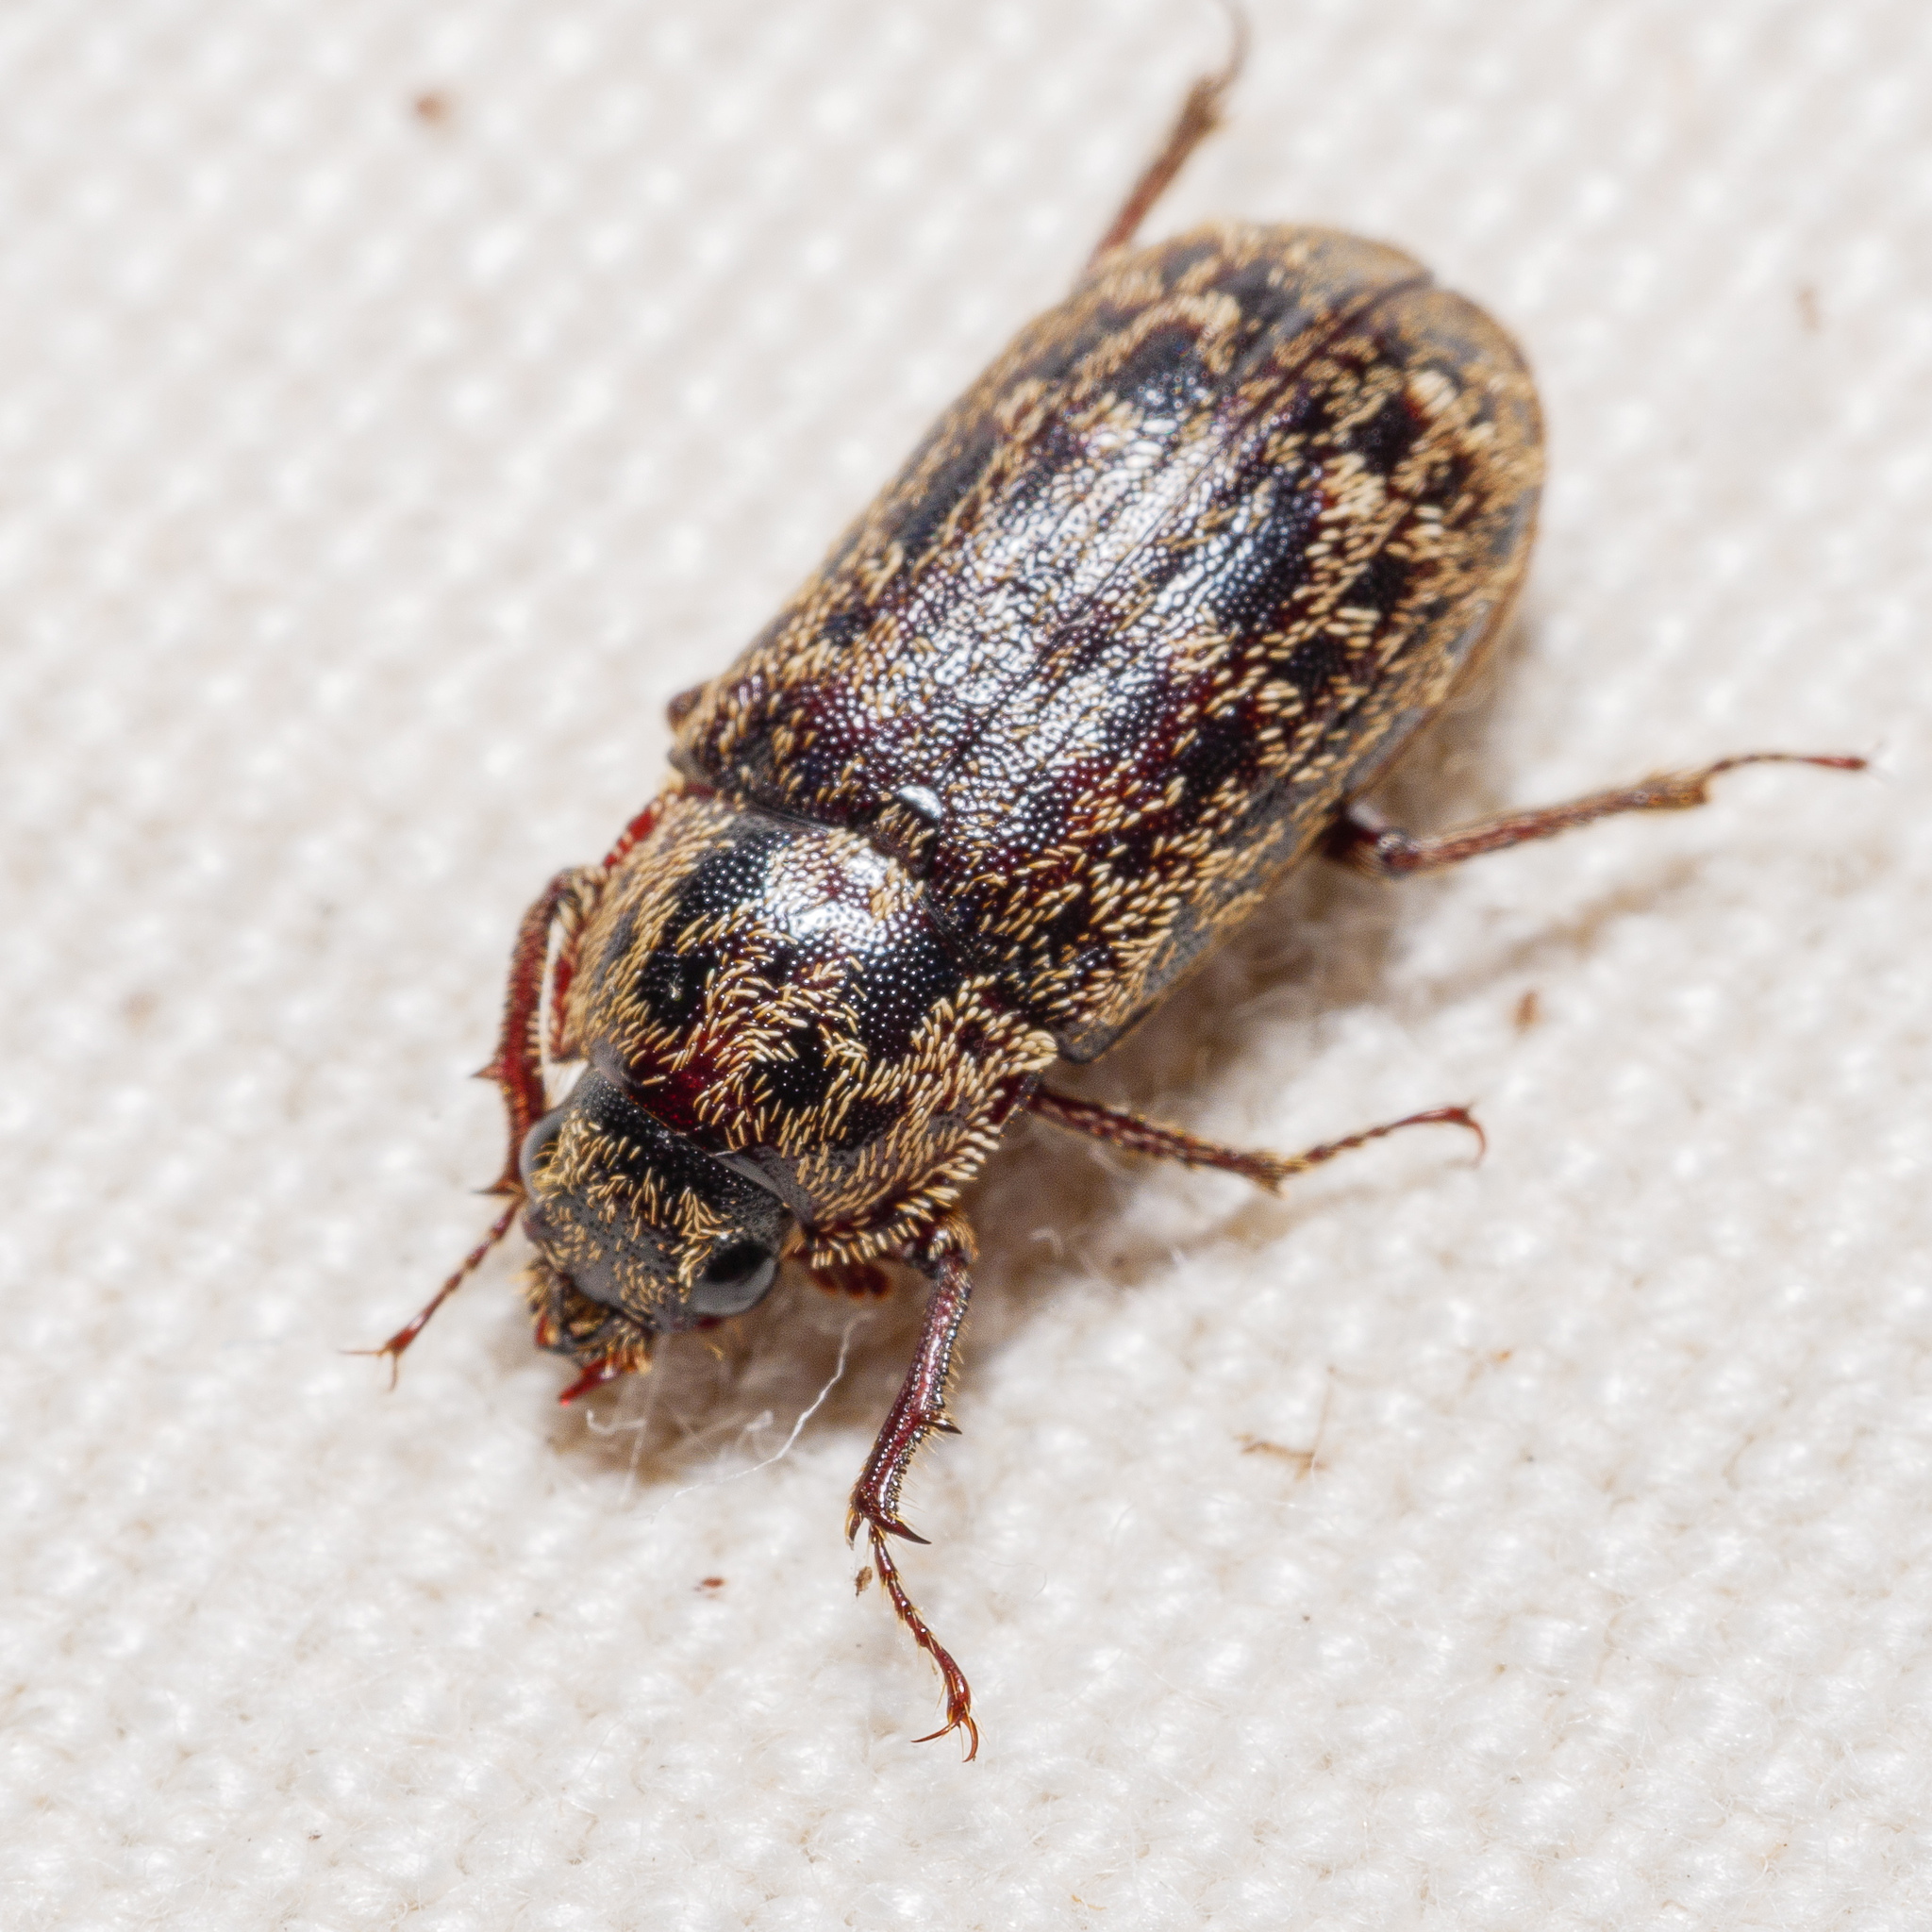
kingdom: Animalia
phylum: Arthropoda
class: Insecta
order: Coleoptera
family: Lucanidae
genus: Mitophyllus
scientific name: Mitophyllus irroratus
